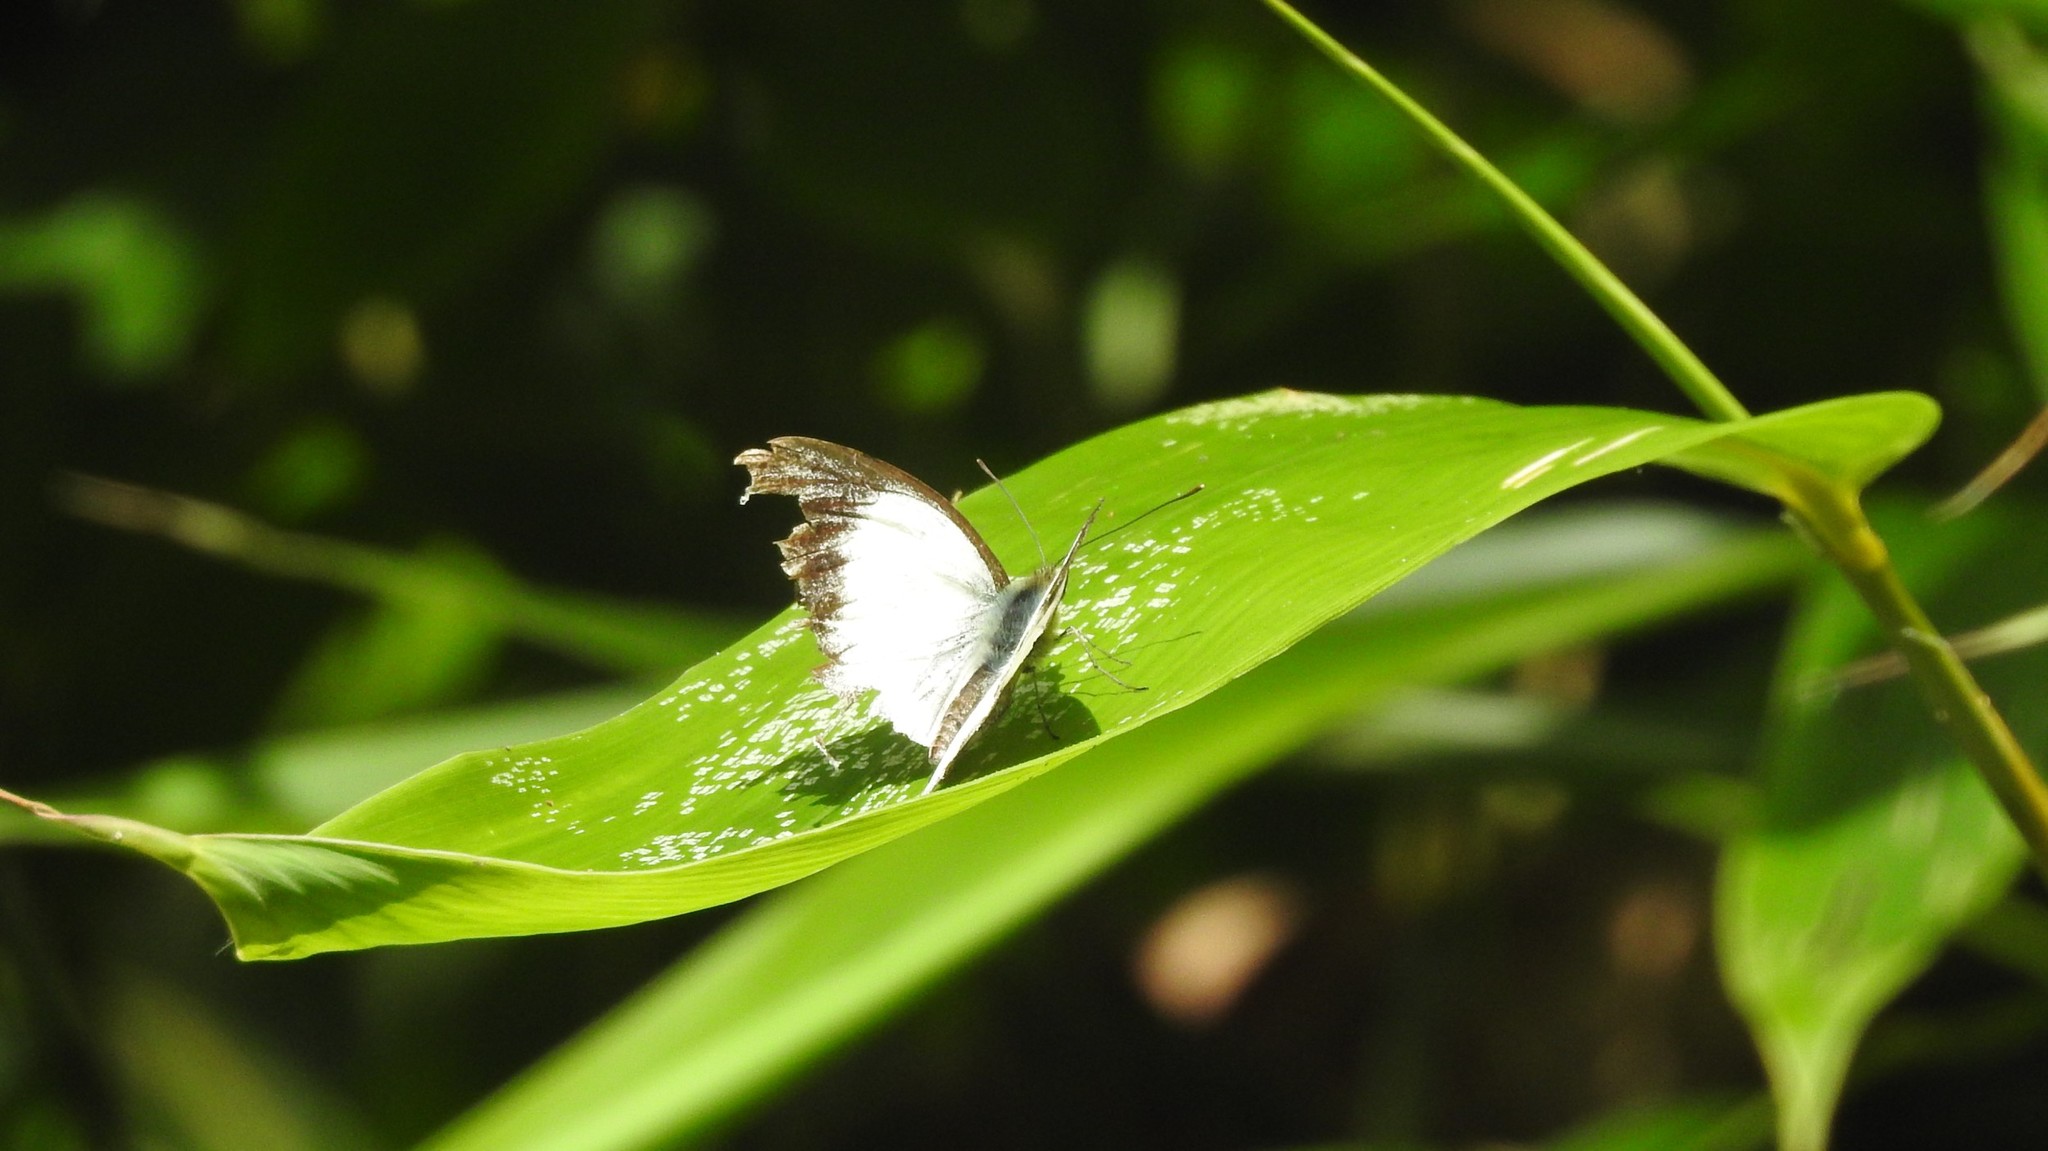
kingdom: Animalia
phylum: Arthropoda
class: Insecta
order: Lepidoptera
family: Pieridae
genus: Cepora
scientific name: Cepora nadina
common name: Lesser gull
